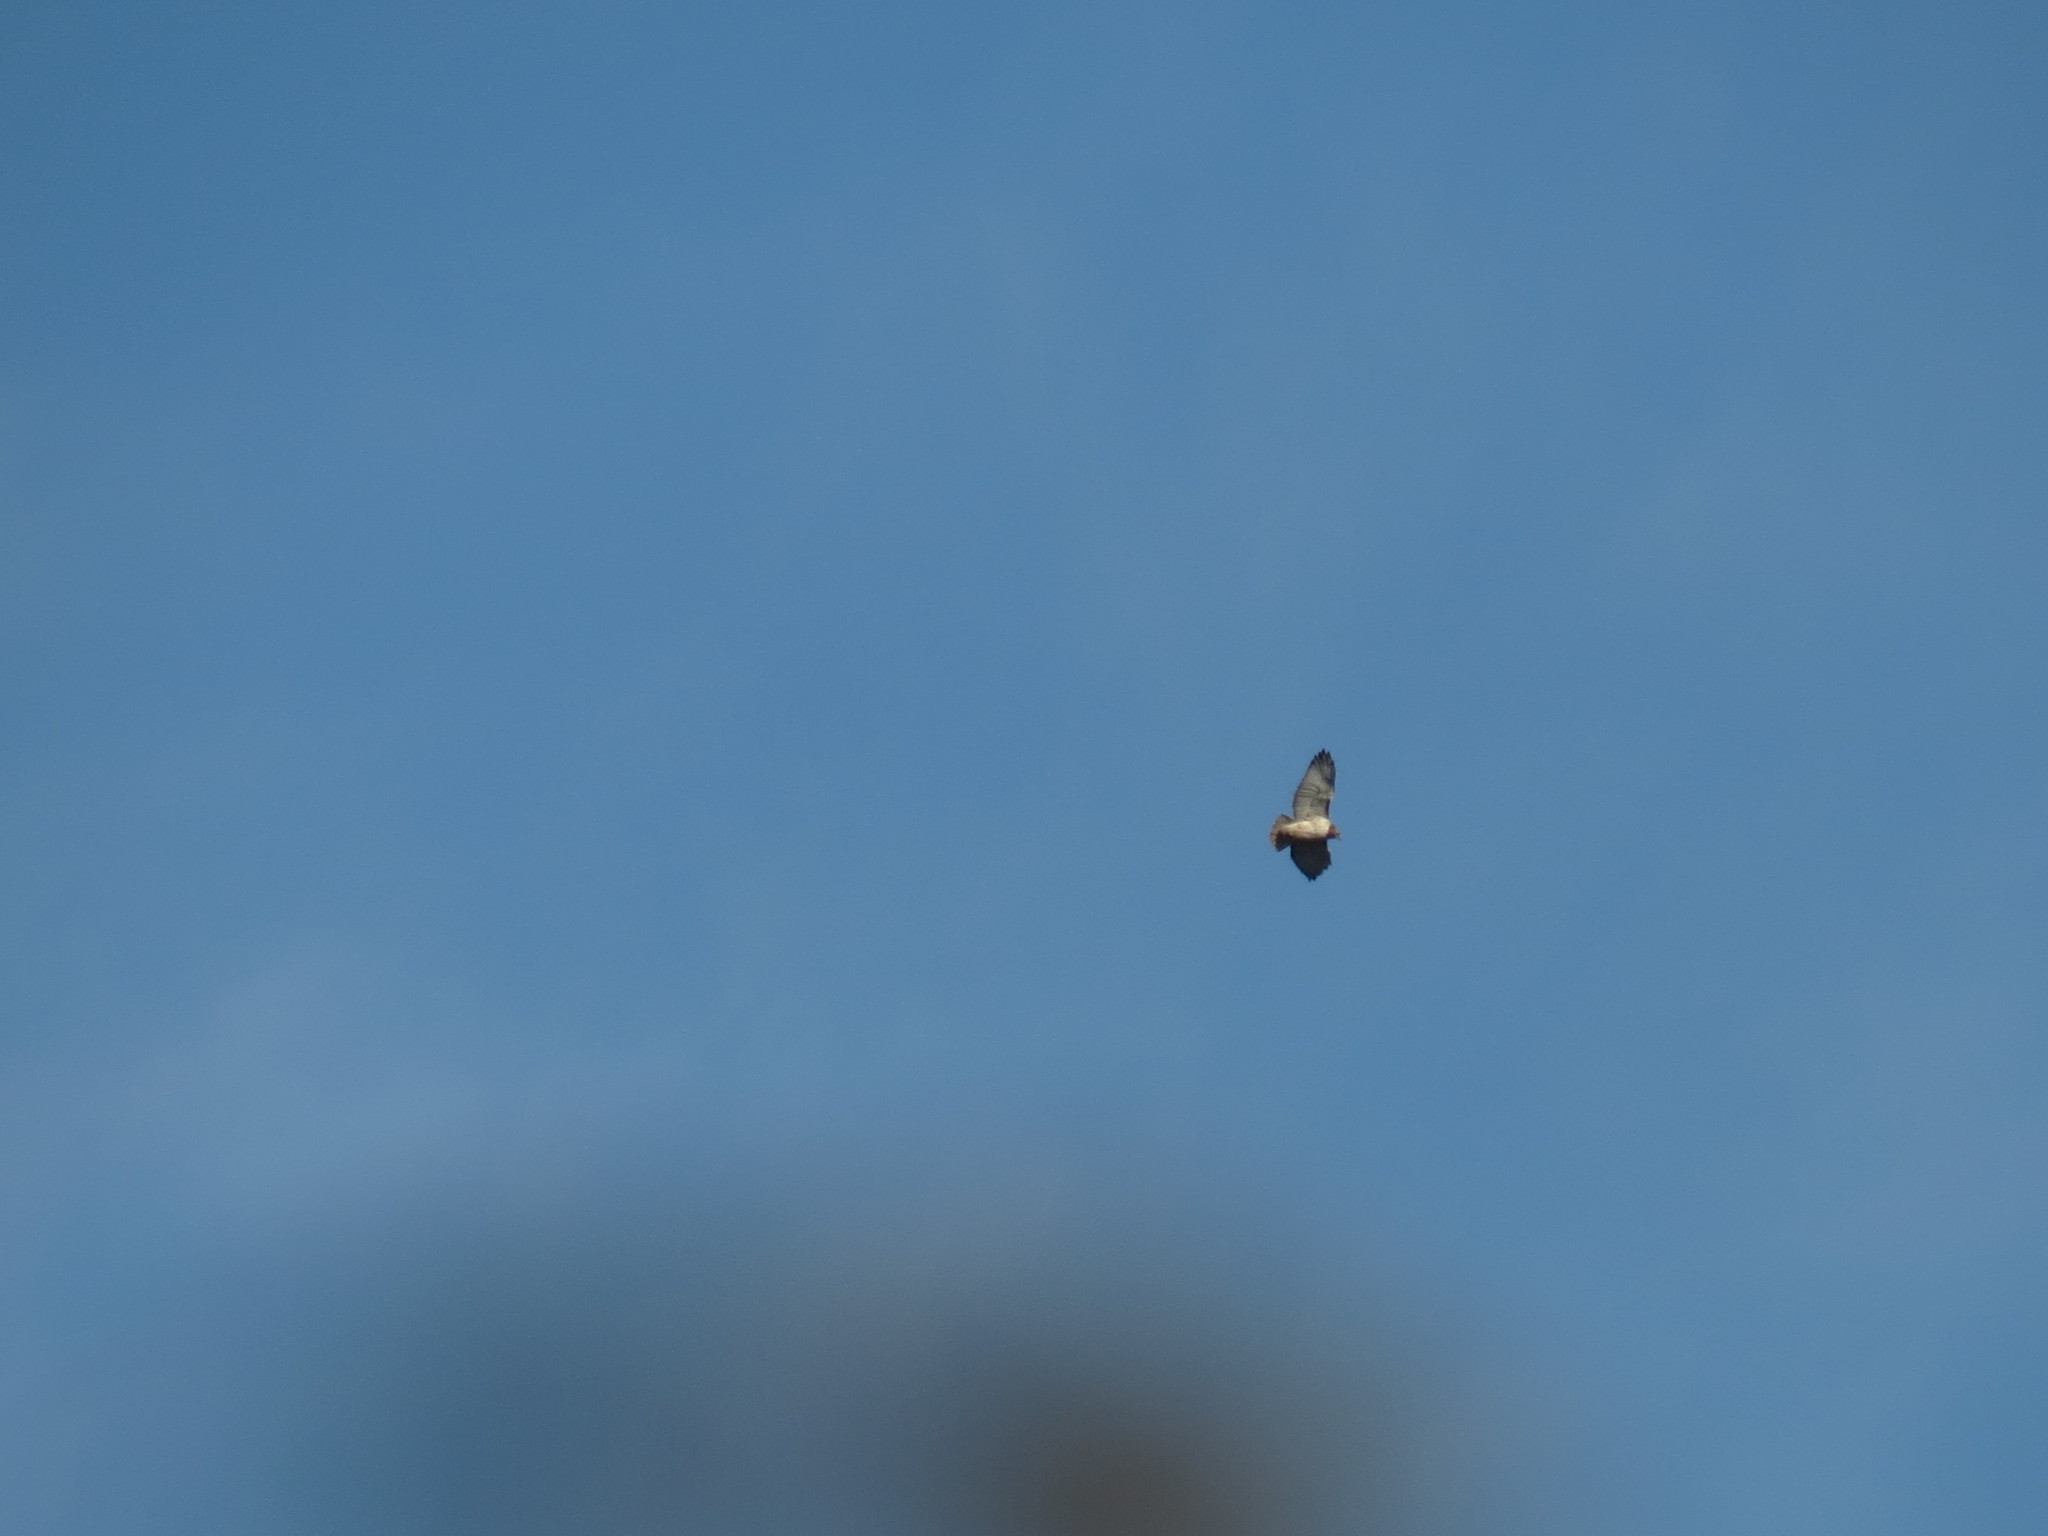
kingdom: Animalia
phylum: Chordata
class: Aves
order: Accipitriformes
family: Accipitridae
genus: Buteo
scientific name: Buteo jamaicensis
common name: Red-tailed hawk
